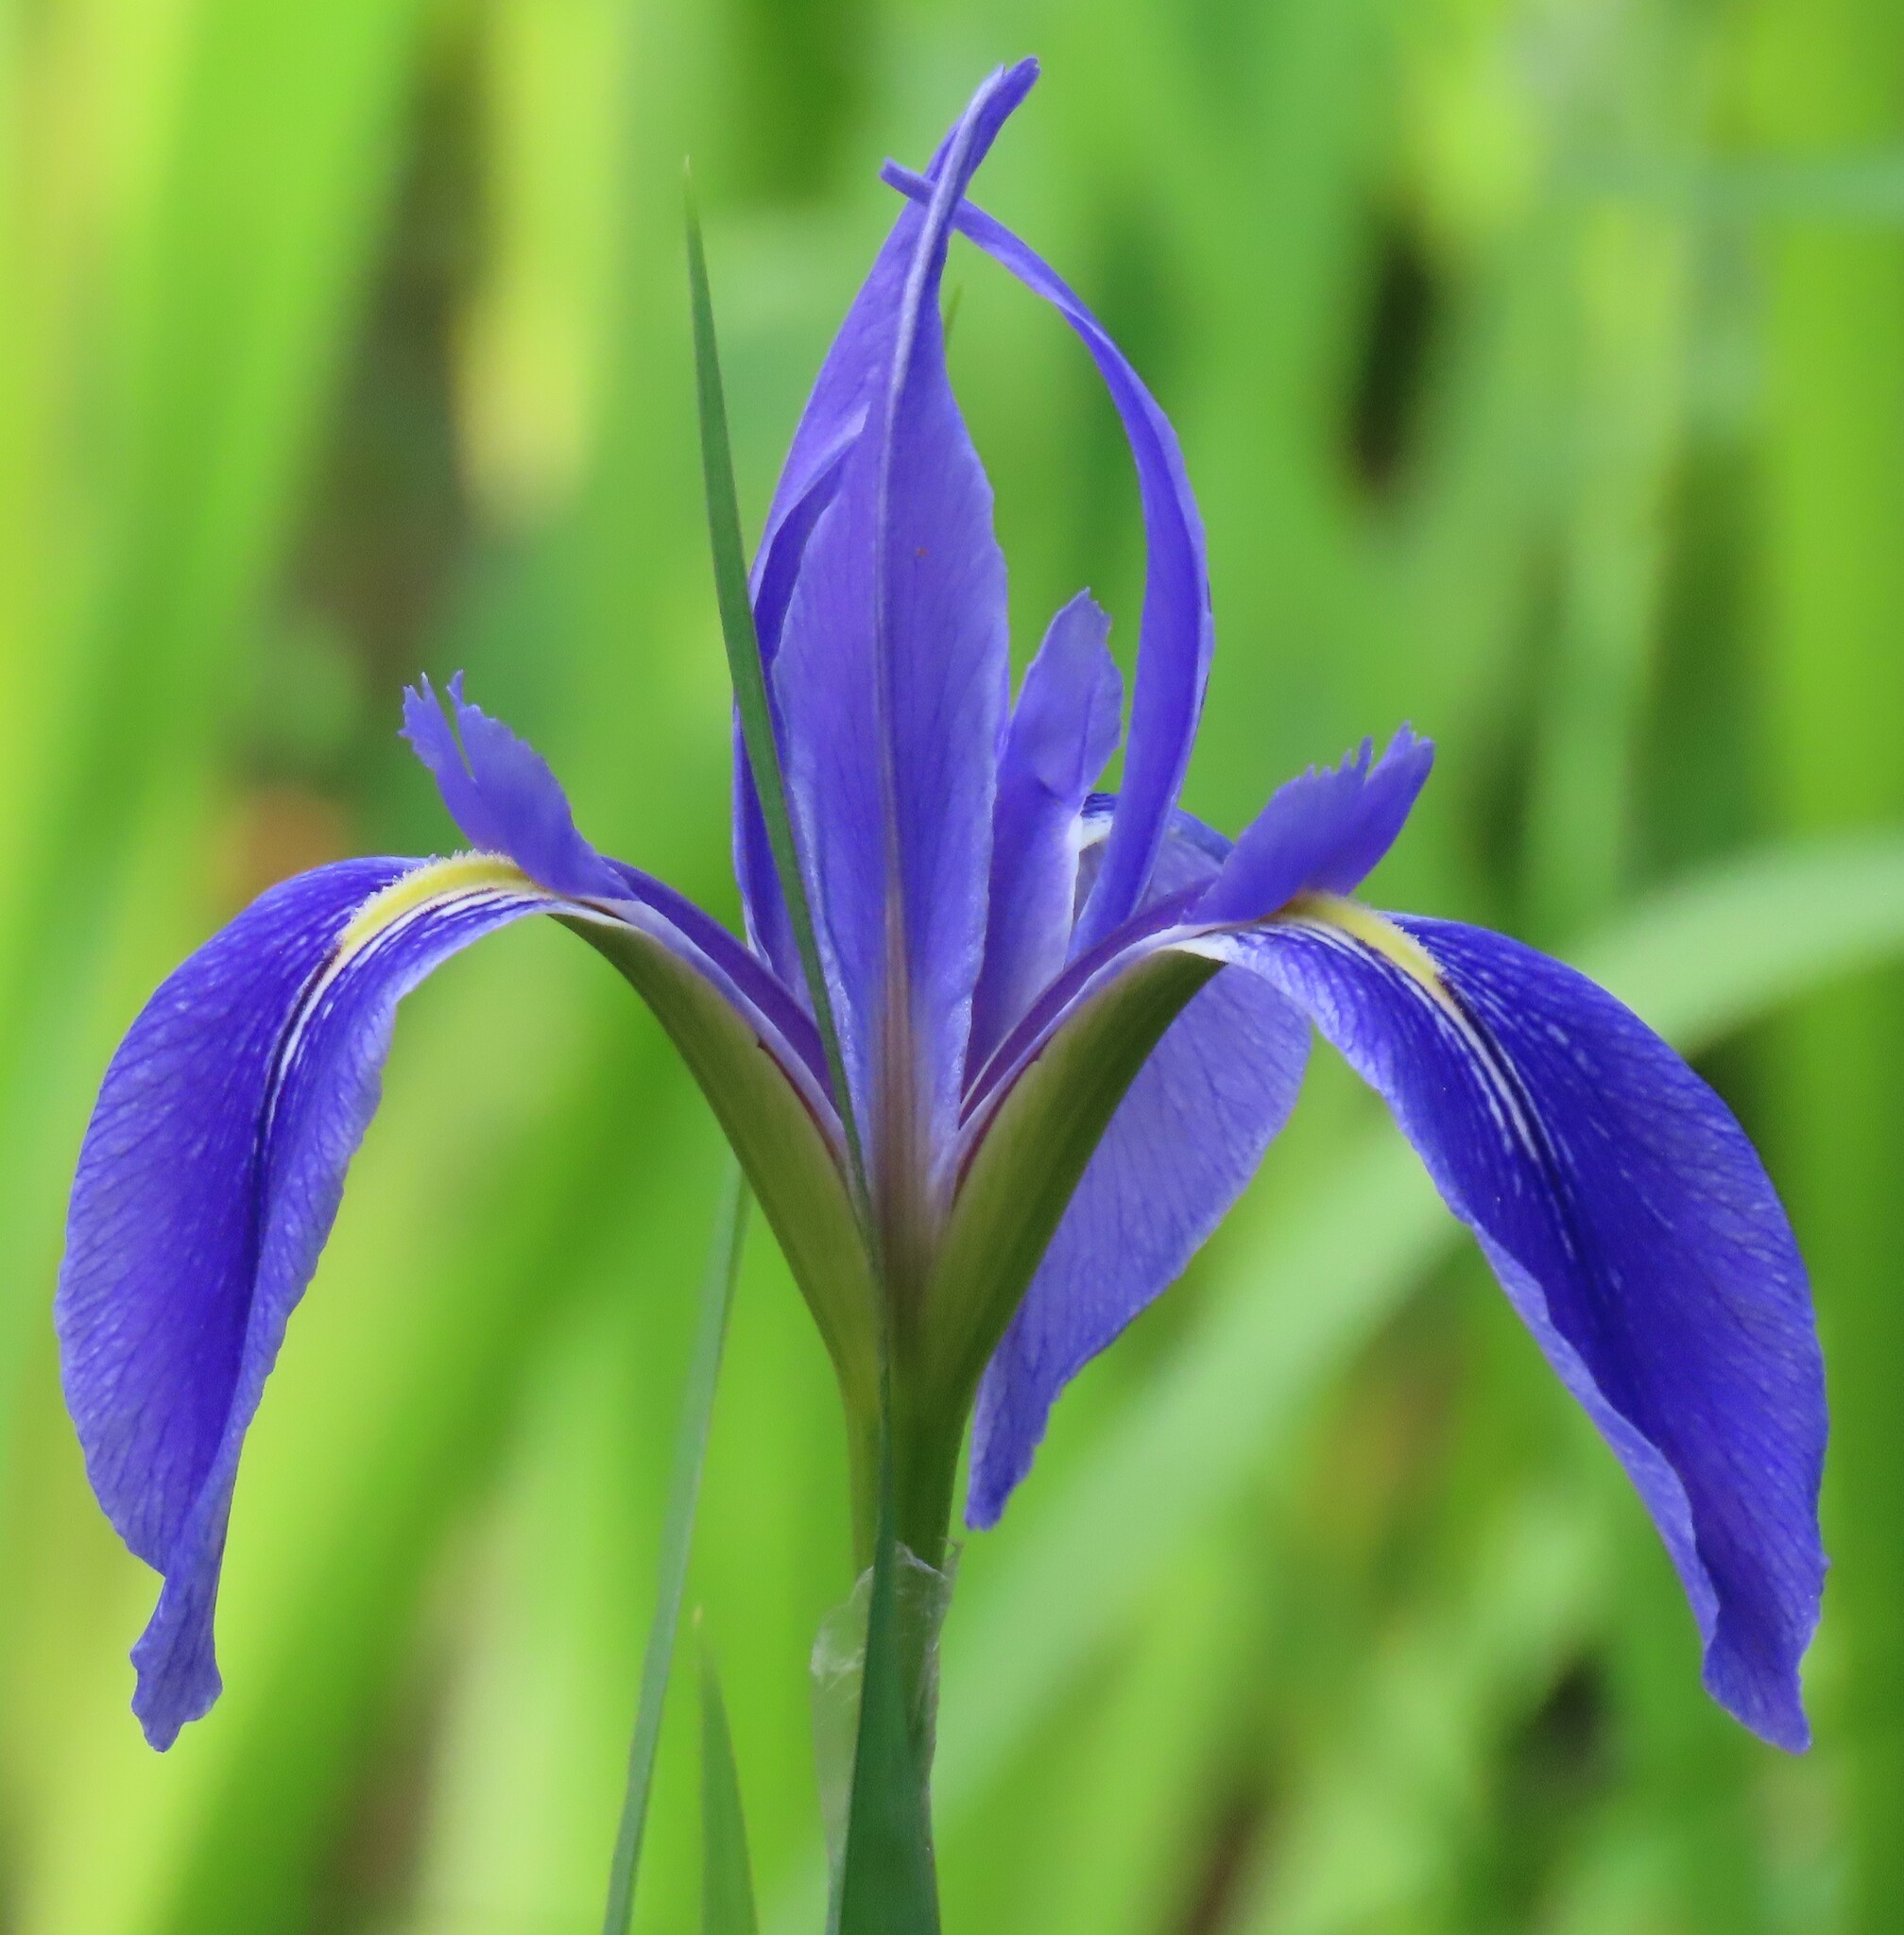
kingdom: Plantae
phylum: Tracheophyta
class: Liliopsida
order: Asparagales
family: Iridaceae
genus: Iris
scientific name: Iris savannarum
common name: Prairie iris
